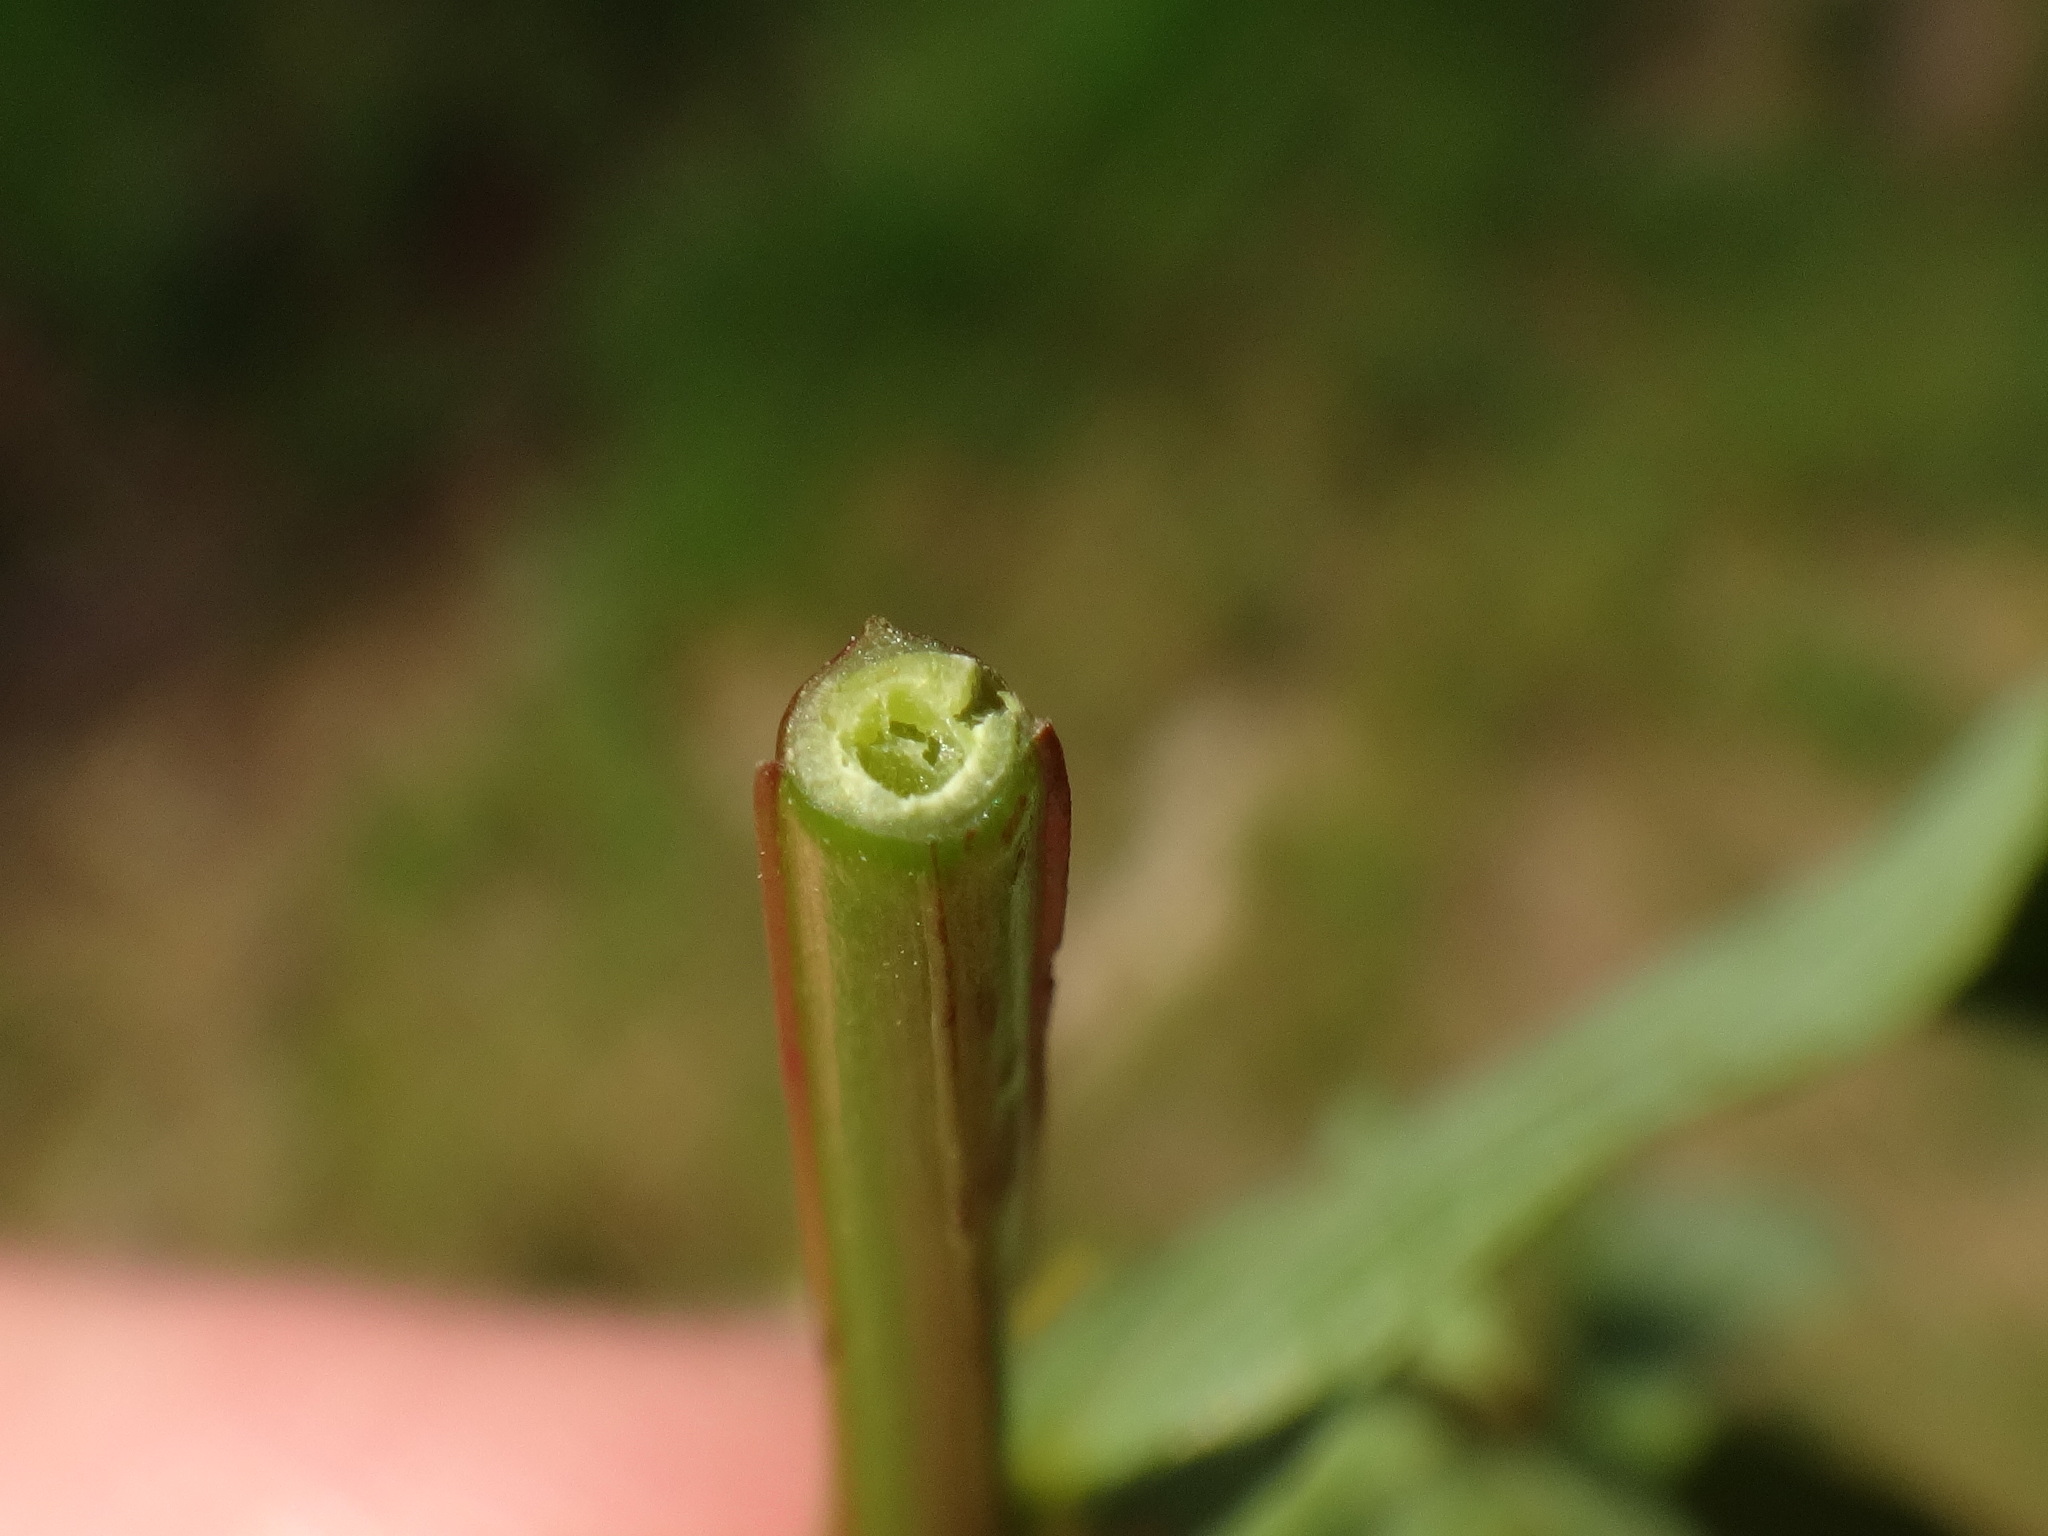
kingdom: Plantae
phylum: Tracheophyta
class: Magnoliopsida
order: Malpighiales
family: Hypericaceae
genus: Hypericum
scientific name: Hypericum maculatum
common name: Imperforate st. john's-wort
